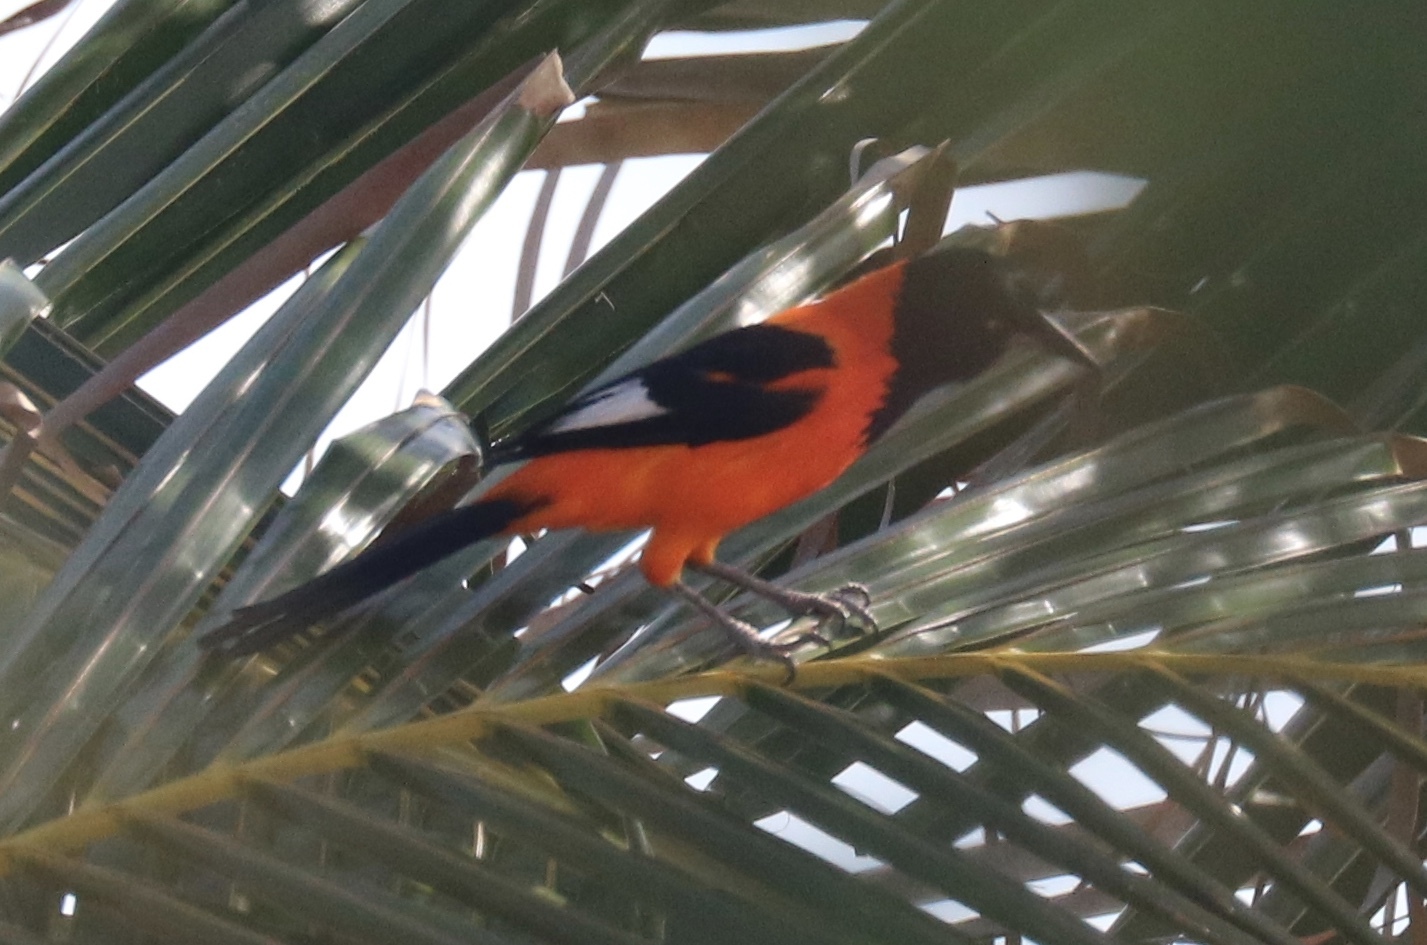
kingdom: Animalia
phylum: Chordata
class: Aves
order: Passeriformes
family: Icteridae
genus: Icterus
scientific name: Icterus icterus
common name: Venezuelan troupial
